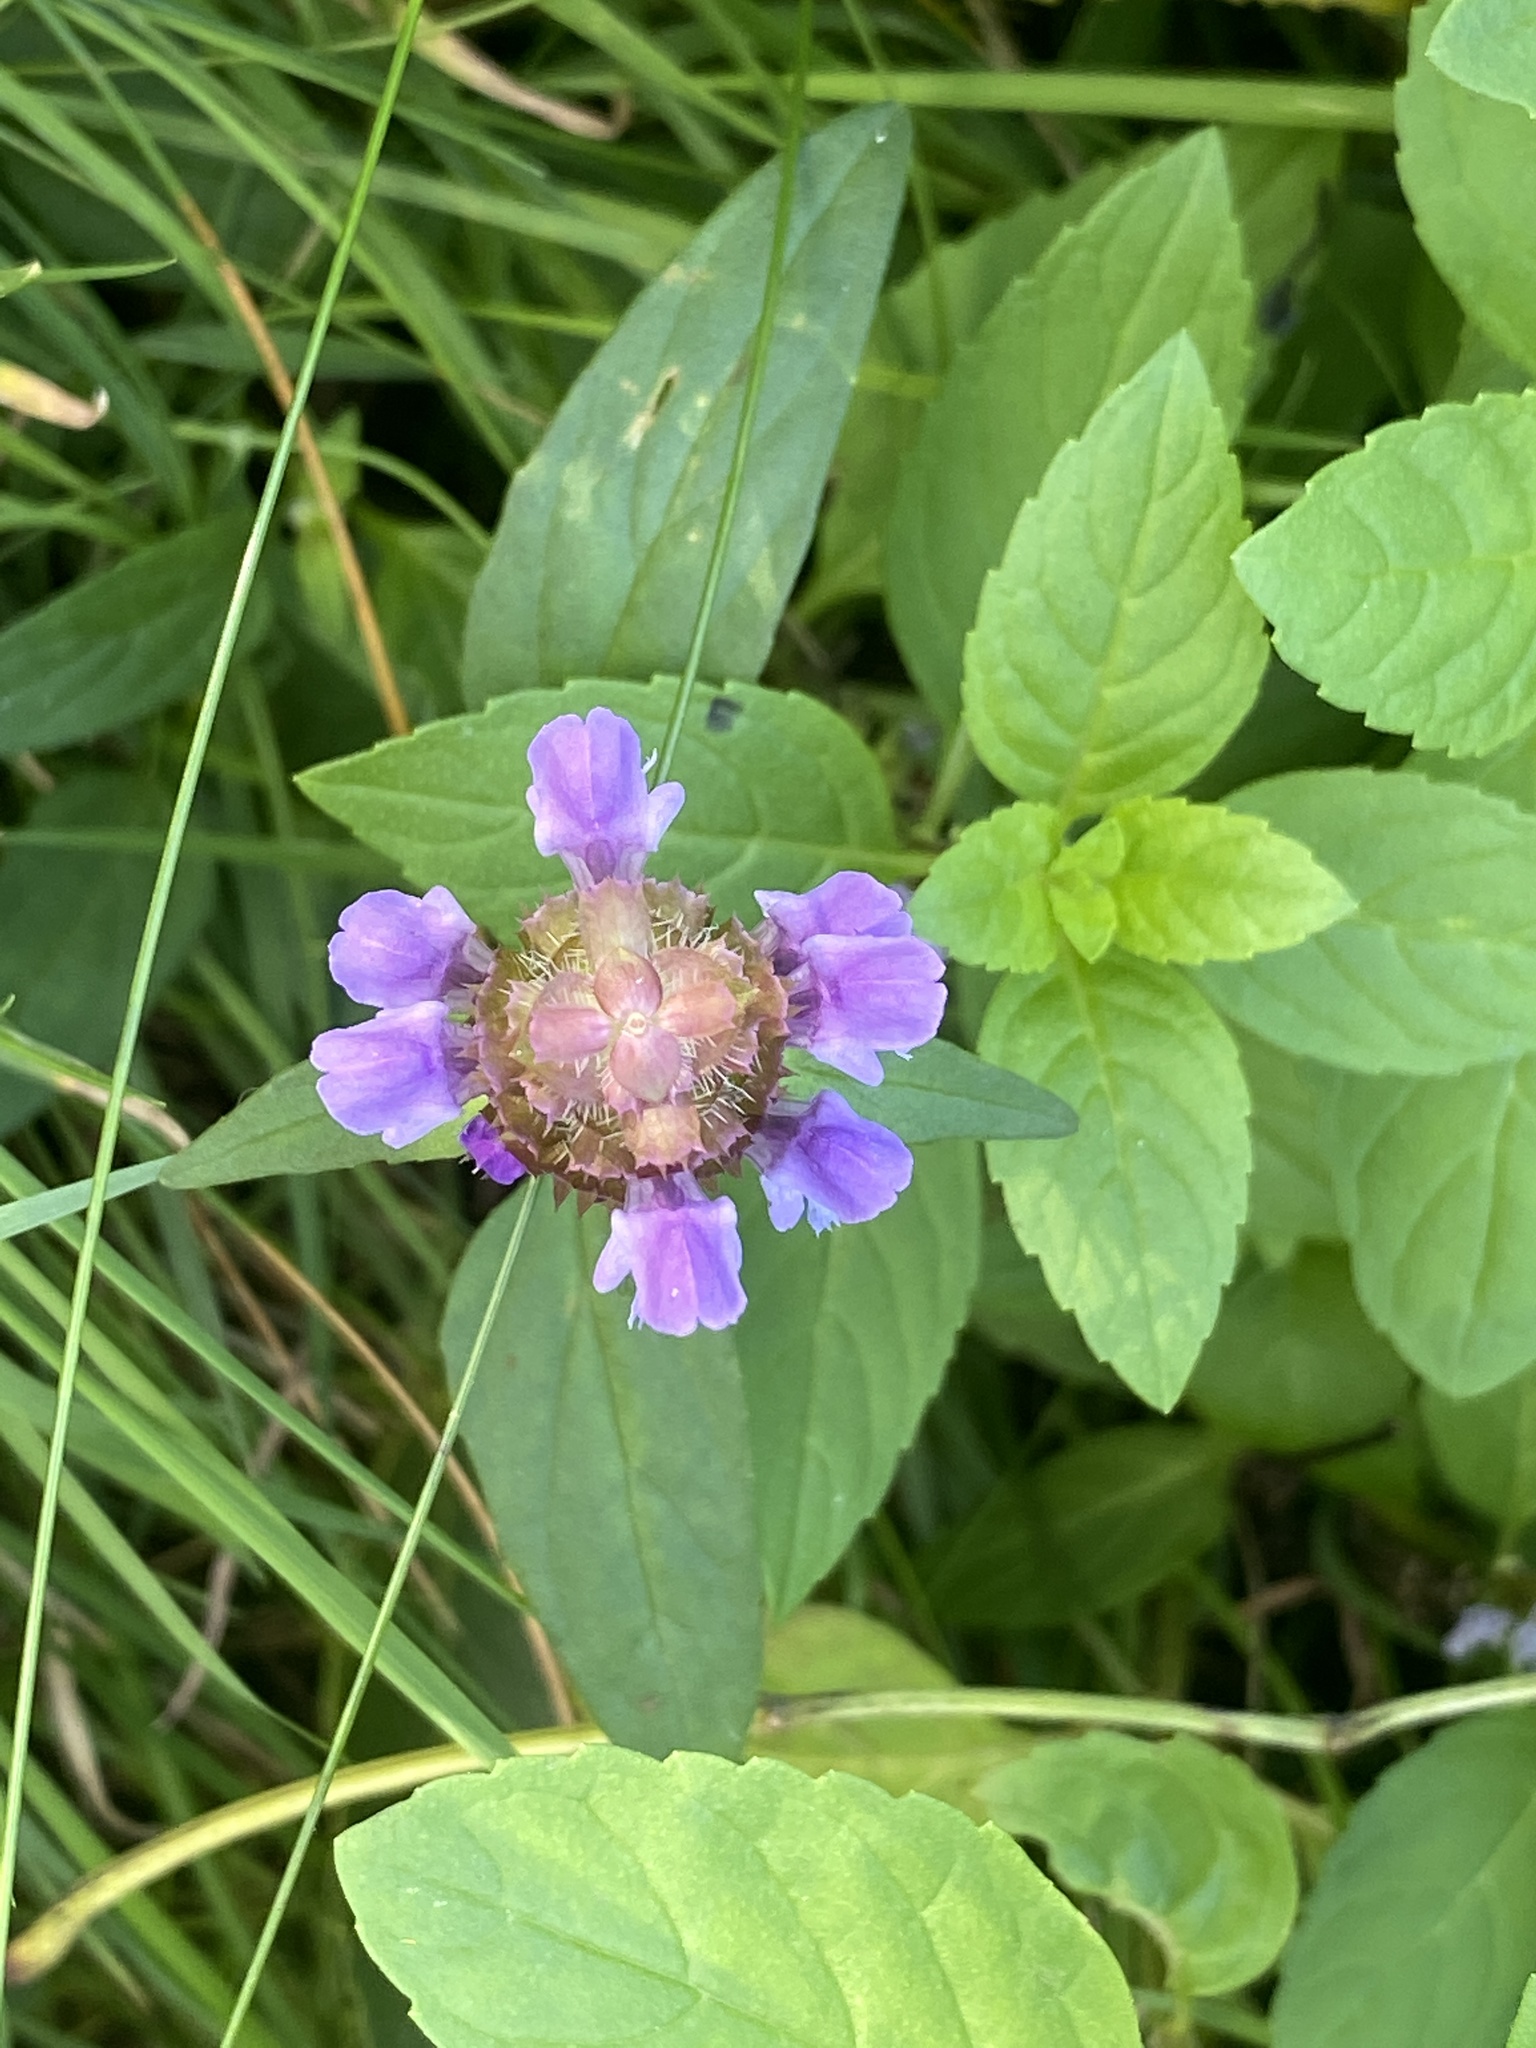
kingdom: Plantae
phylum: Tracheophyta
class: Magnoliopsida
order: Lamiales
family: Lamiaceae
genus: Prunella
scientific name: Prunella vulgaris
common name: Heal-all
